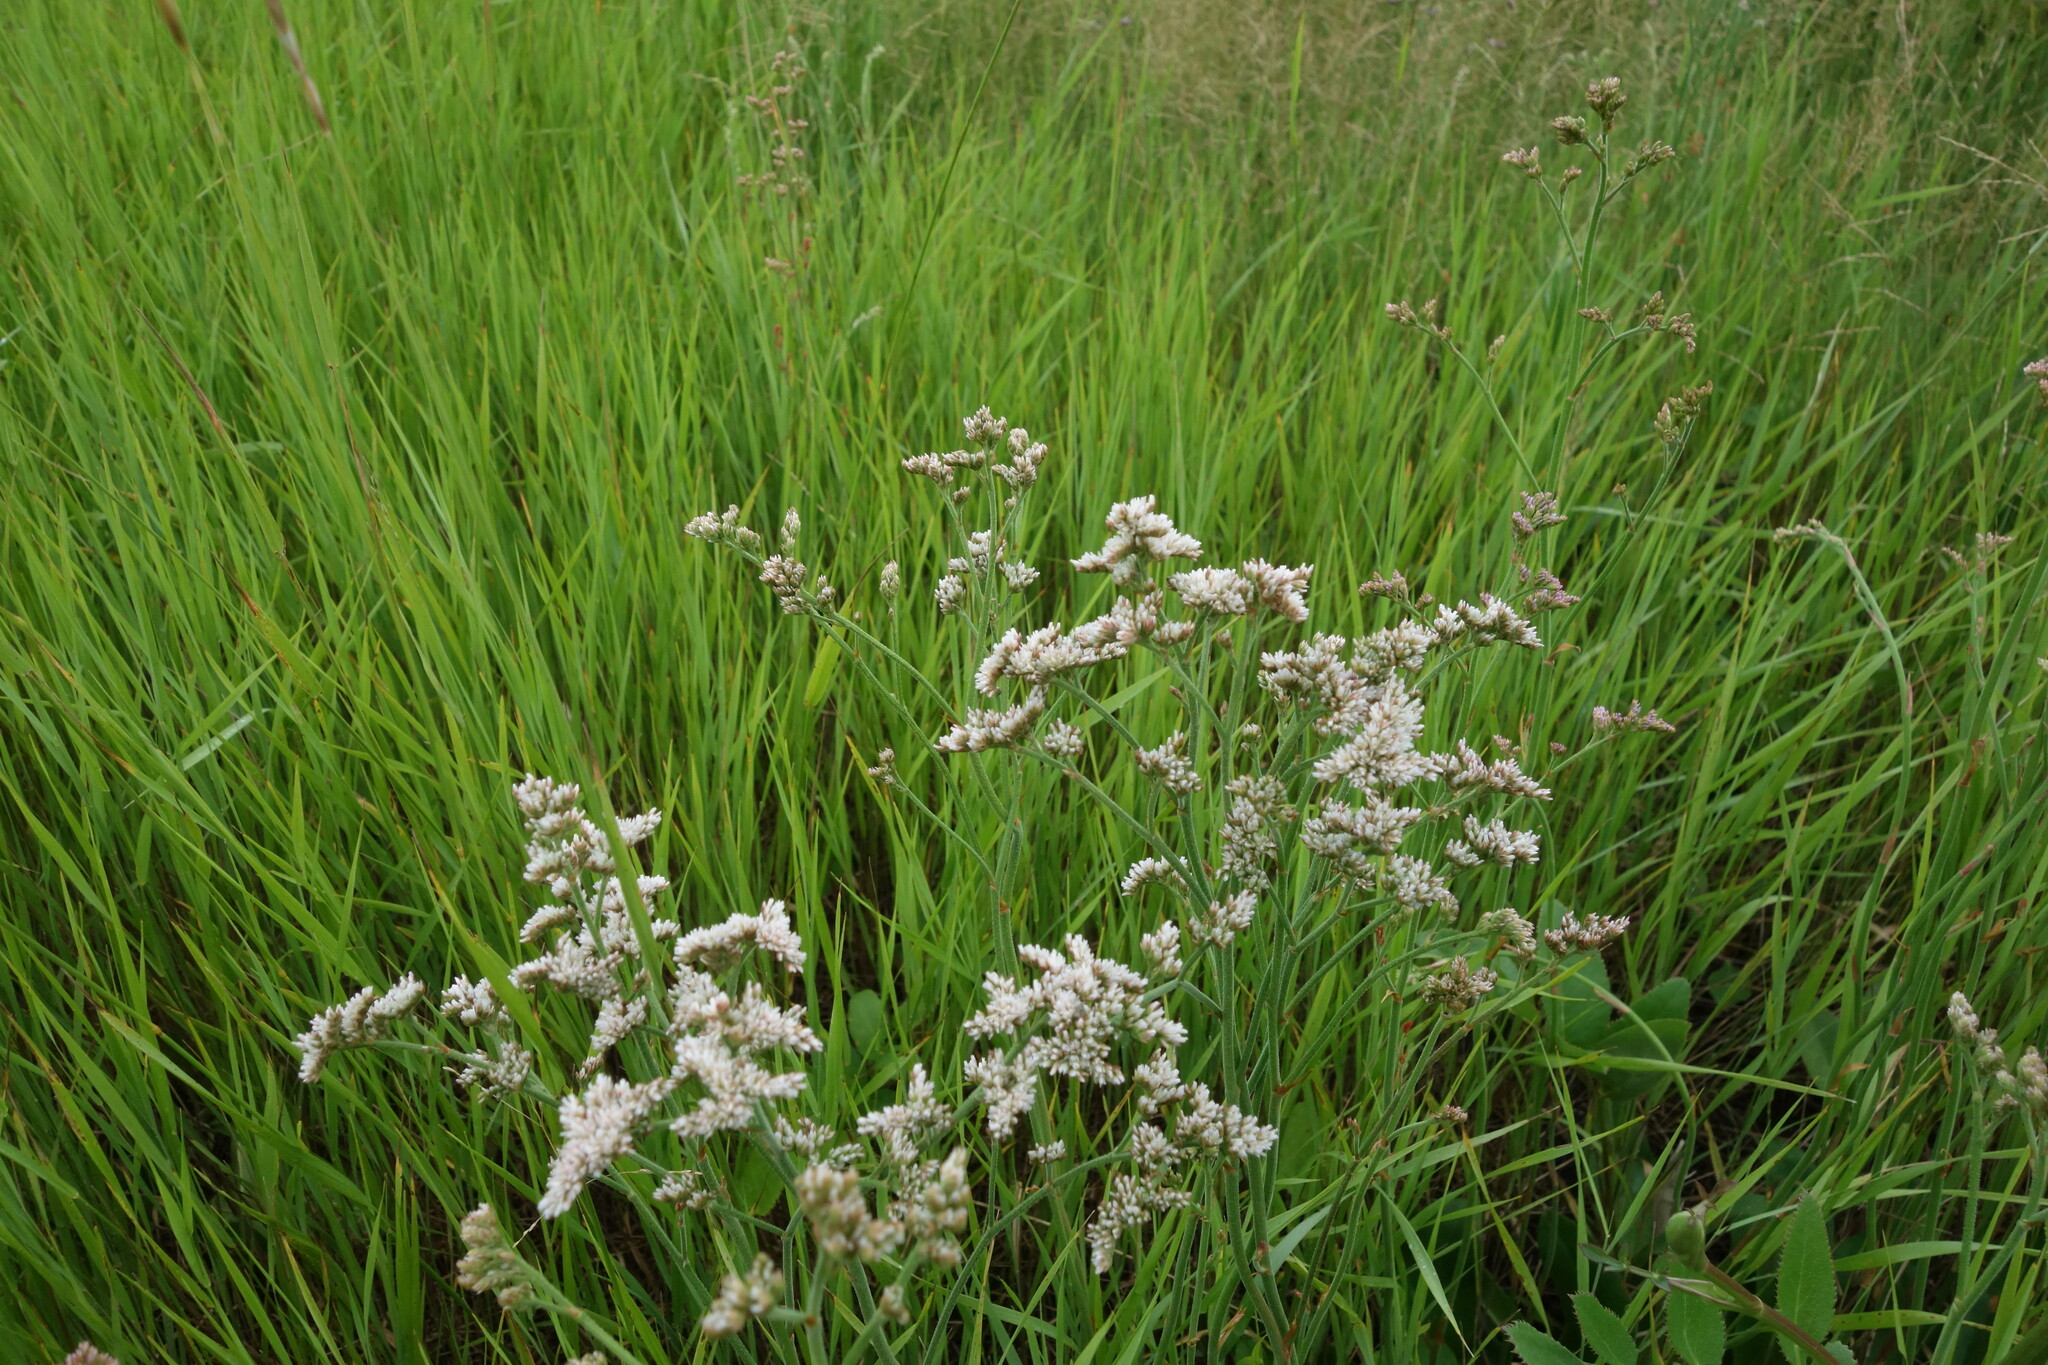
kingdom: Plantae
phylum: Tracheophyta
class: Magnoliopsida
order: Caryophyllales
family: Plumbaginaceae
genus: Limonium
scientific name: Limonium tomentellum
